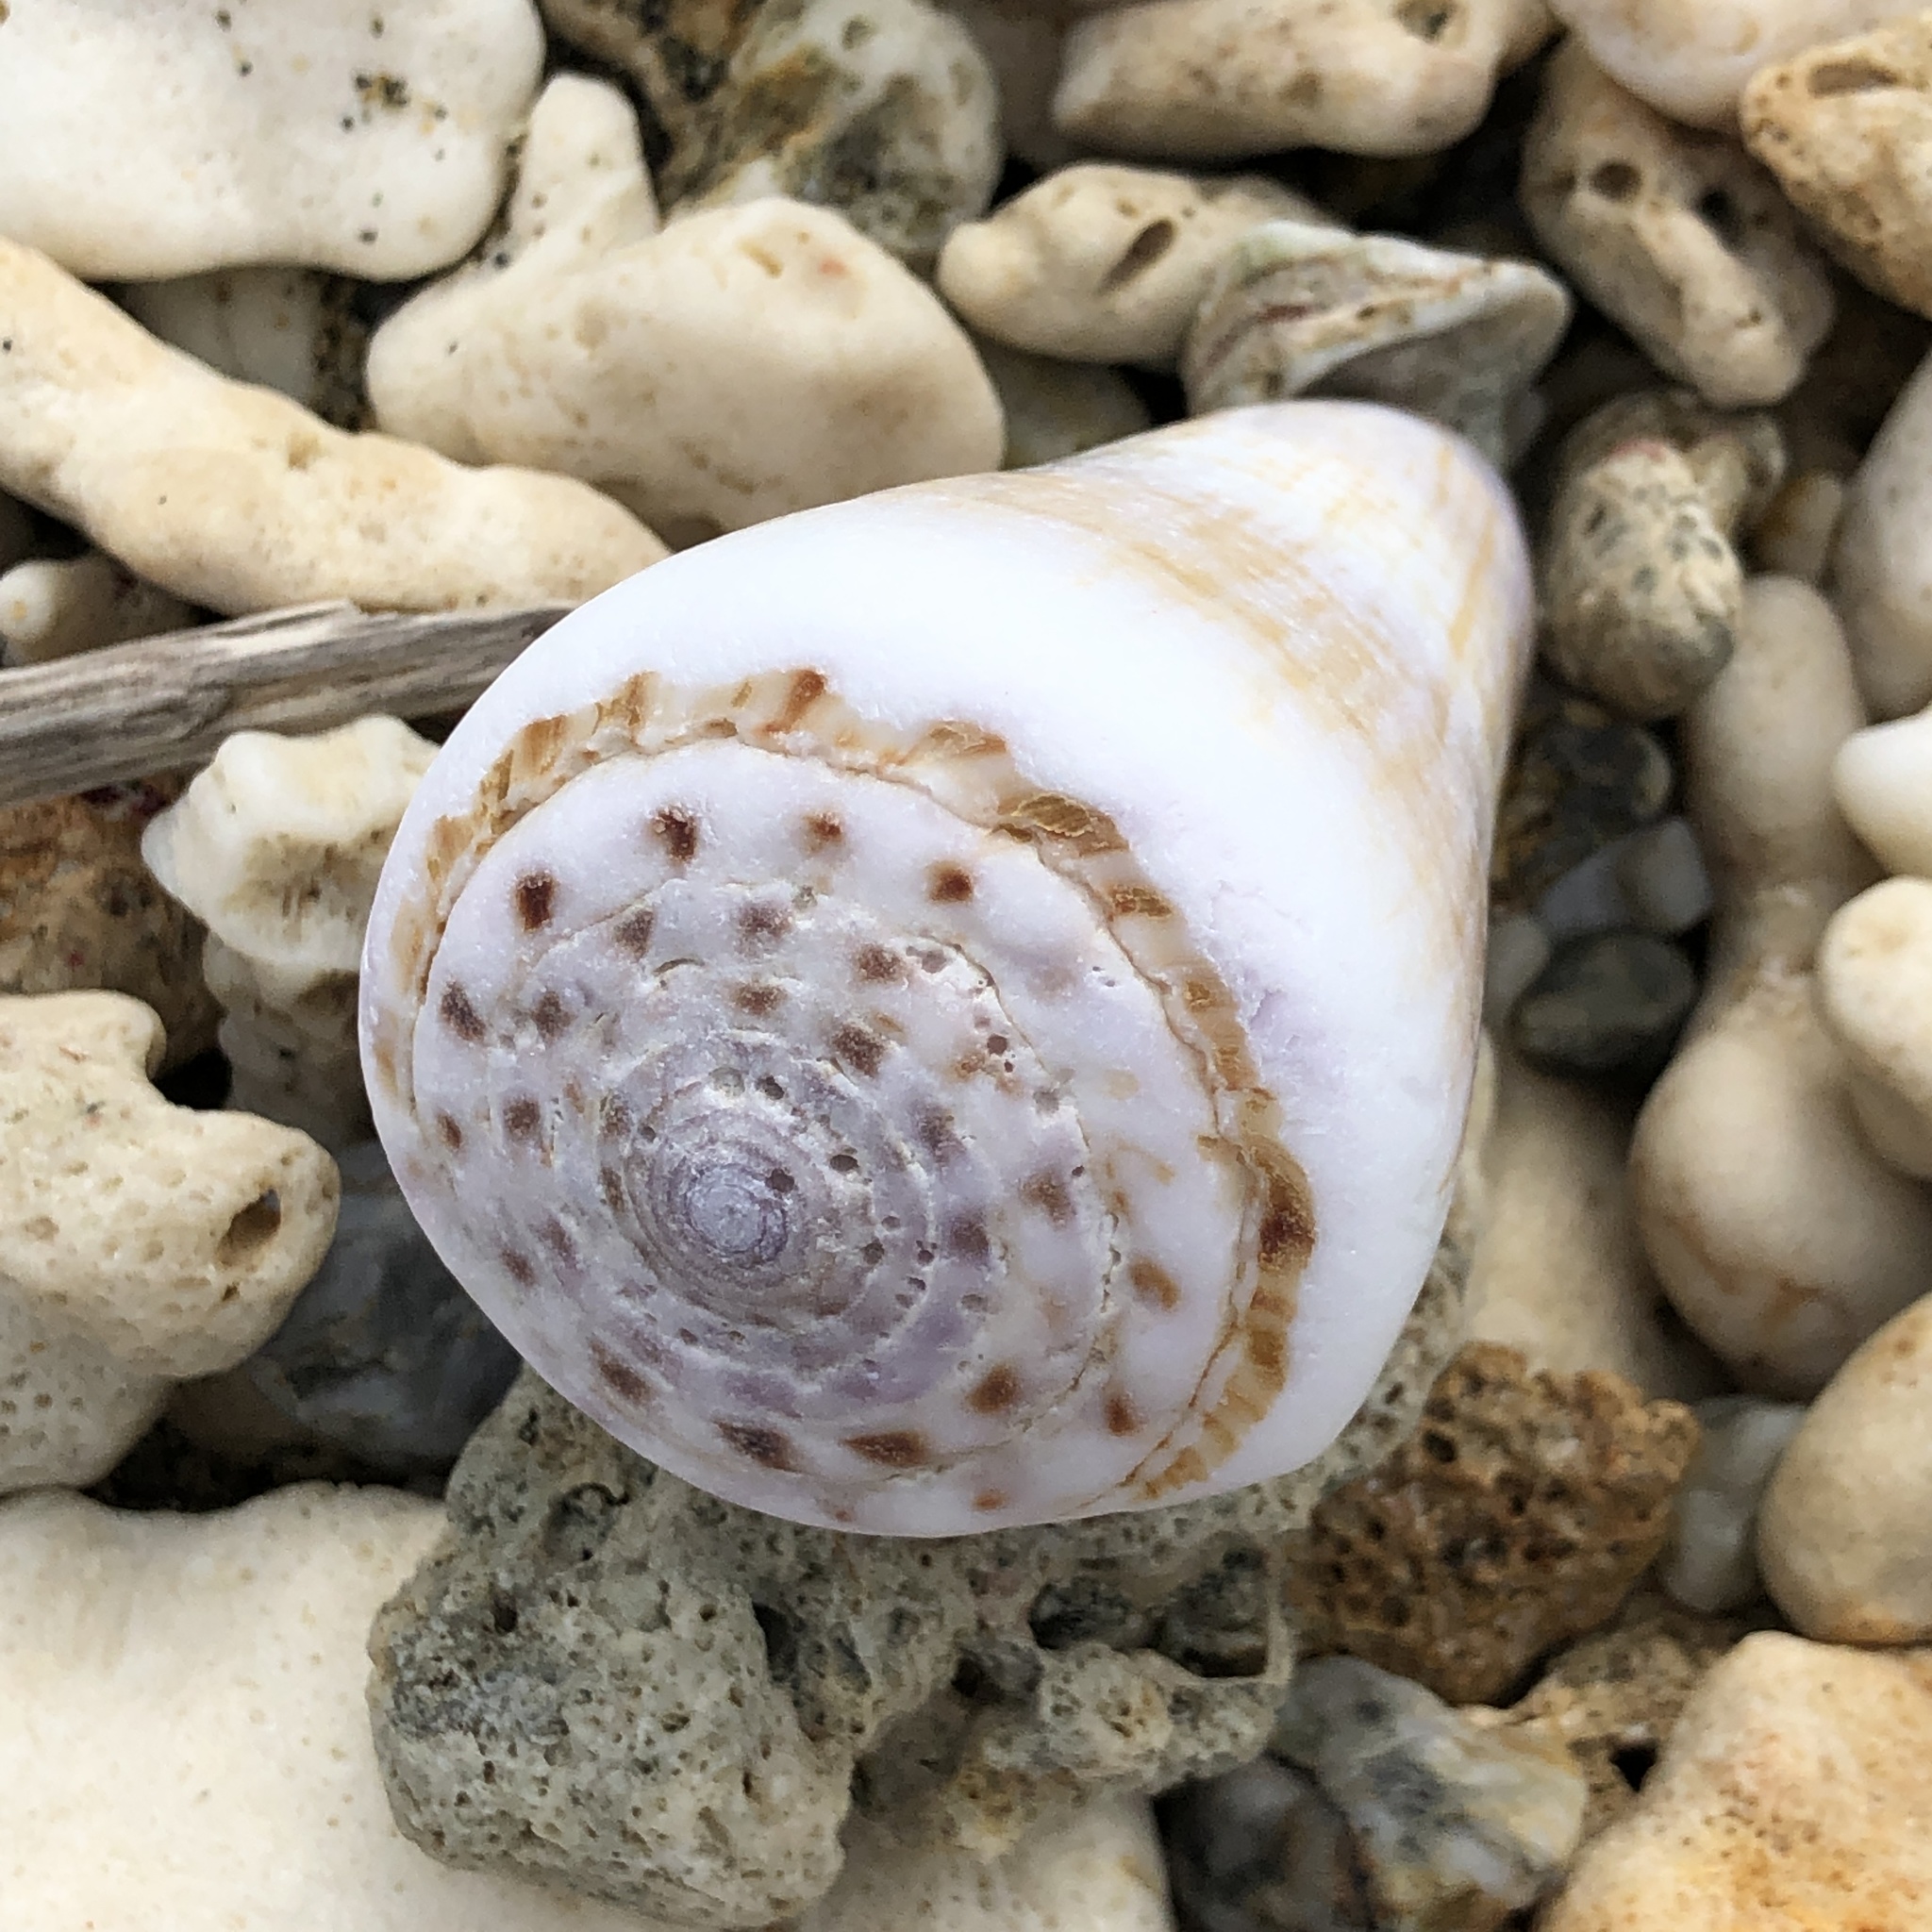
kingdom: Animalia
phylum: Mollusca
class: Gastropoda
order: Neogastropoda
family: Conidae
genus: Conus
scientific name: Conus distans
